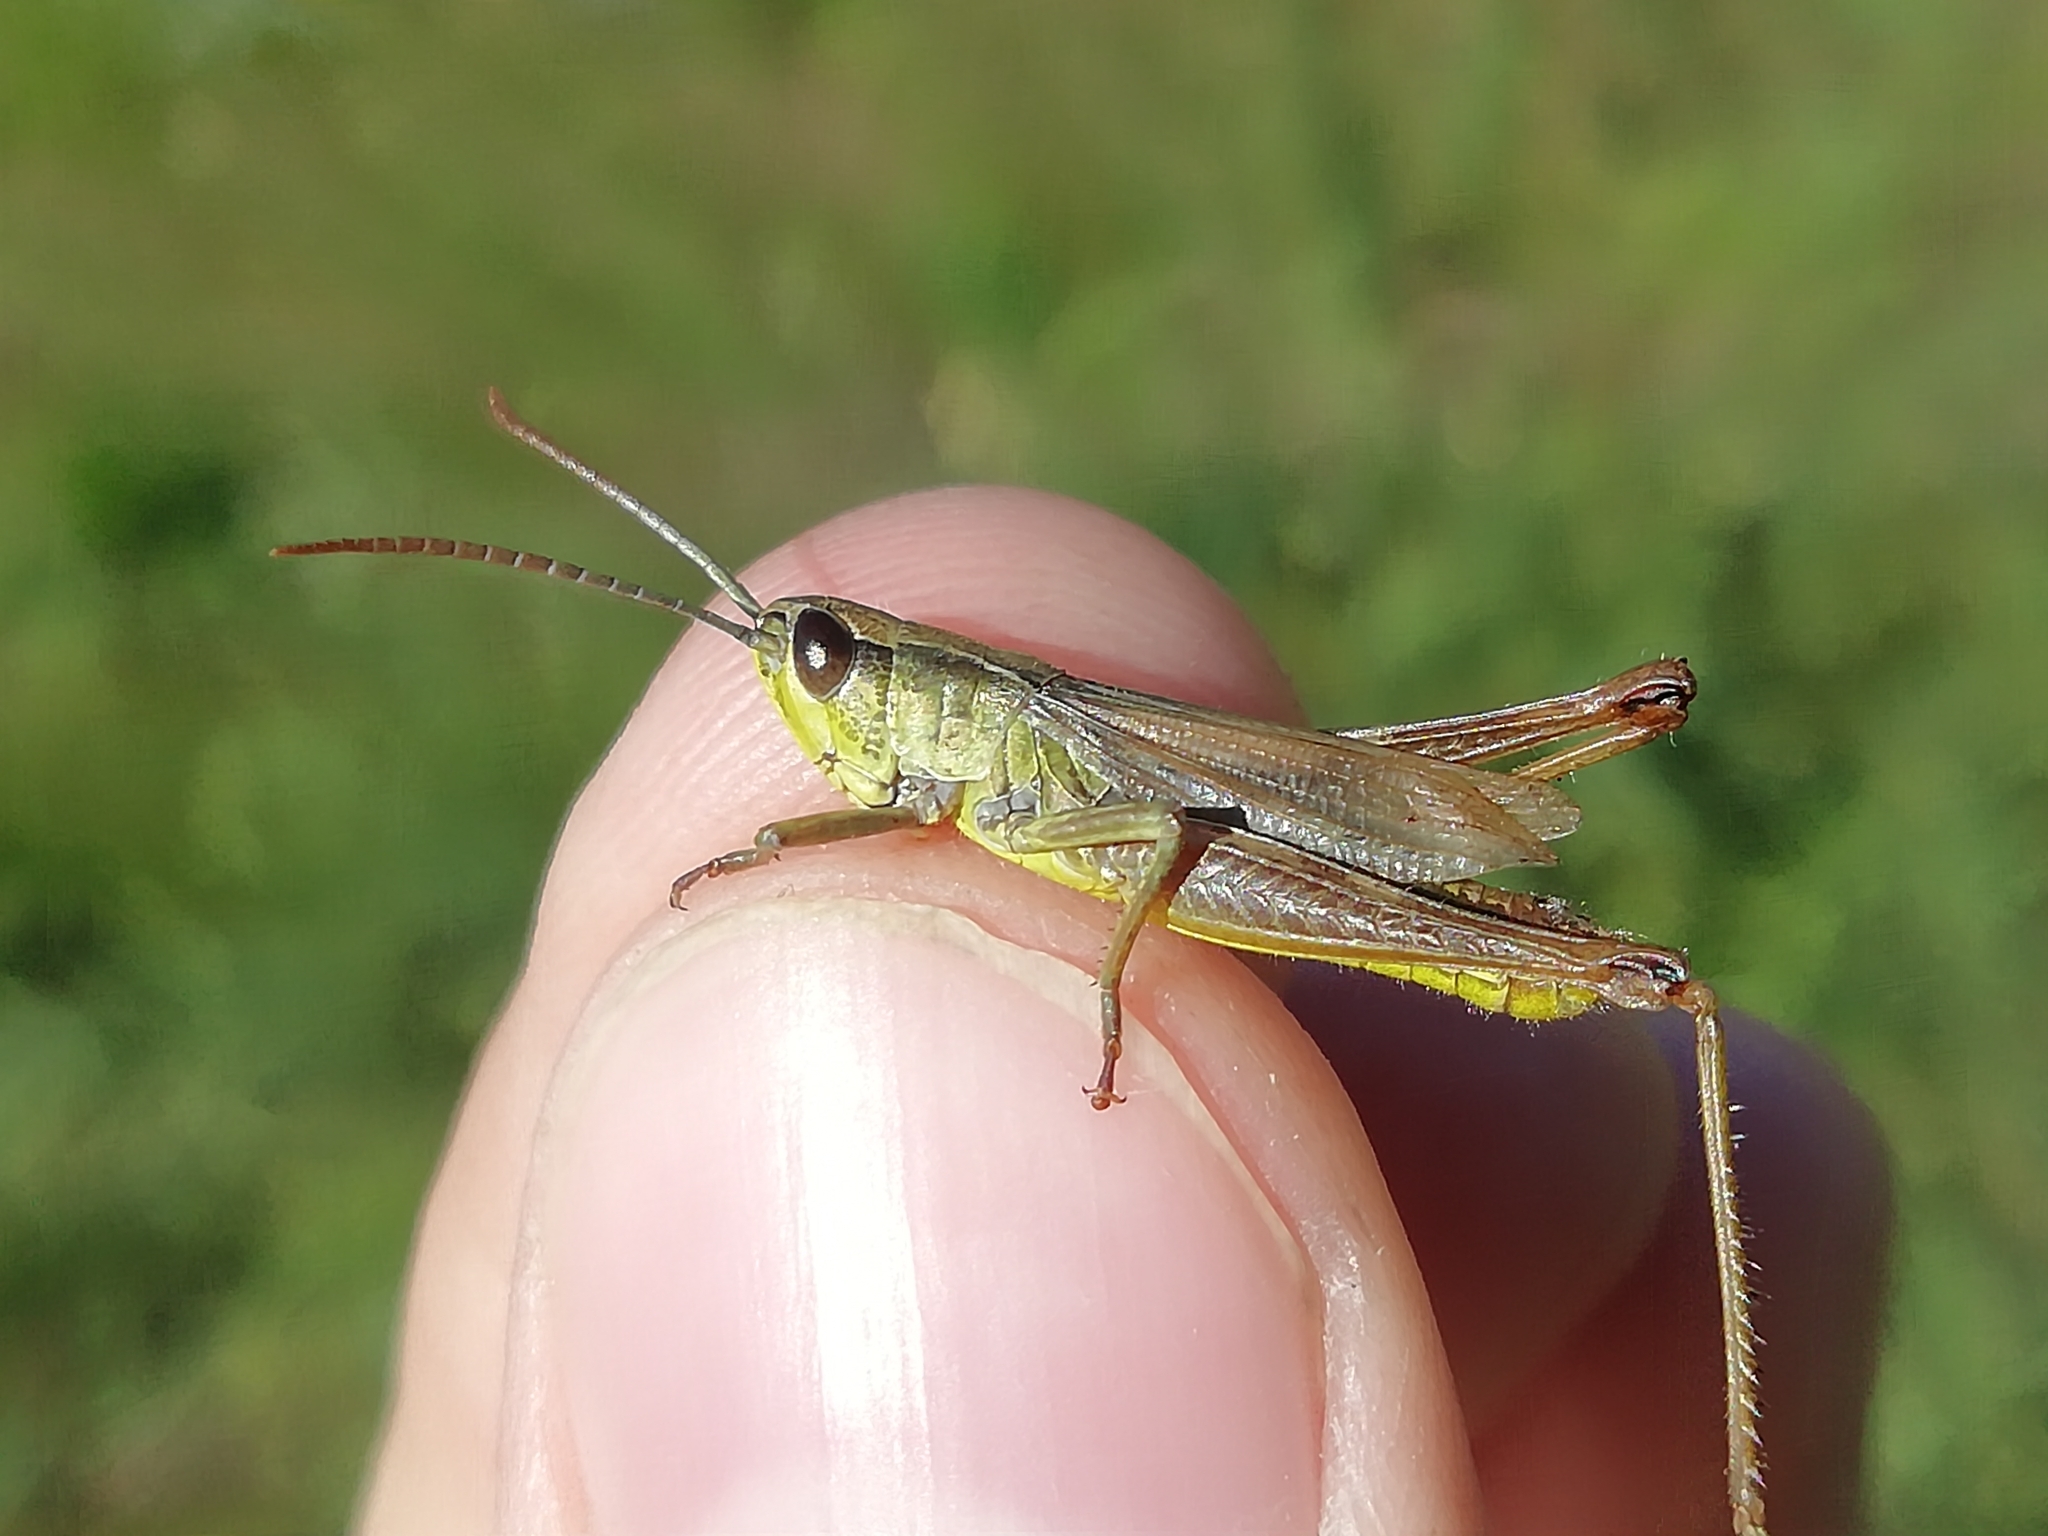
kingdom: Animalia
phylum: Arthropoda
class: Insecta
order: Orthoptera
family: Acrididae
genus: Pseudochorthippus
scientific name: Pseudochorthippus parallelus
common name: Meadow grasshopper
